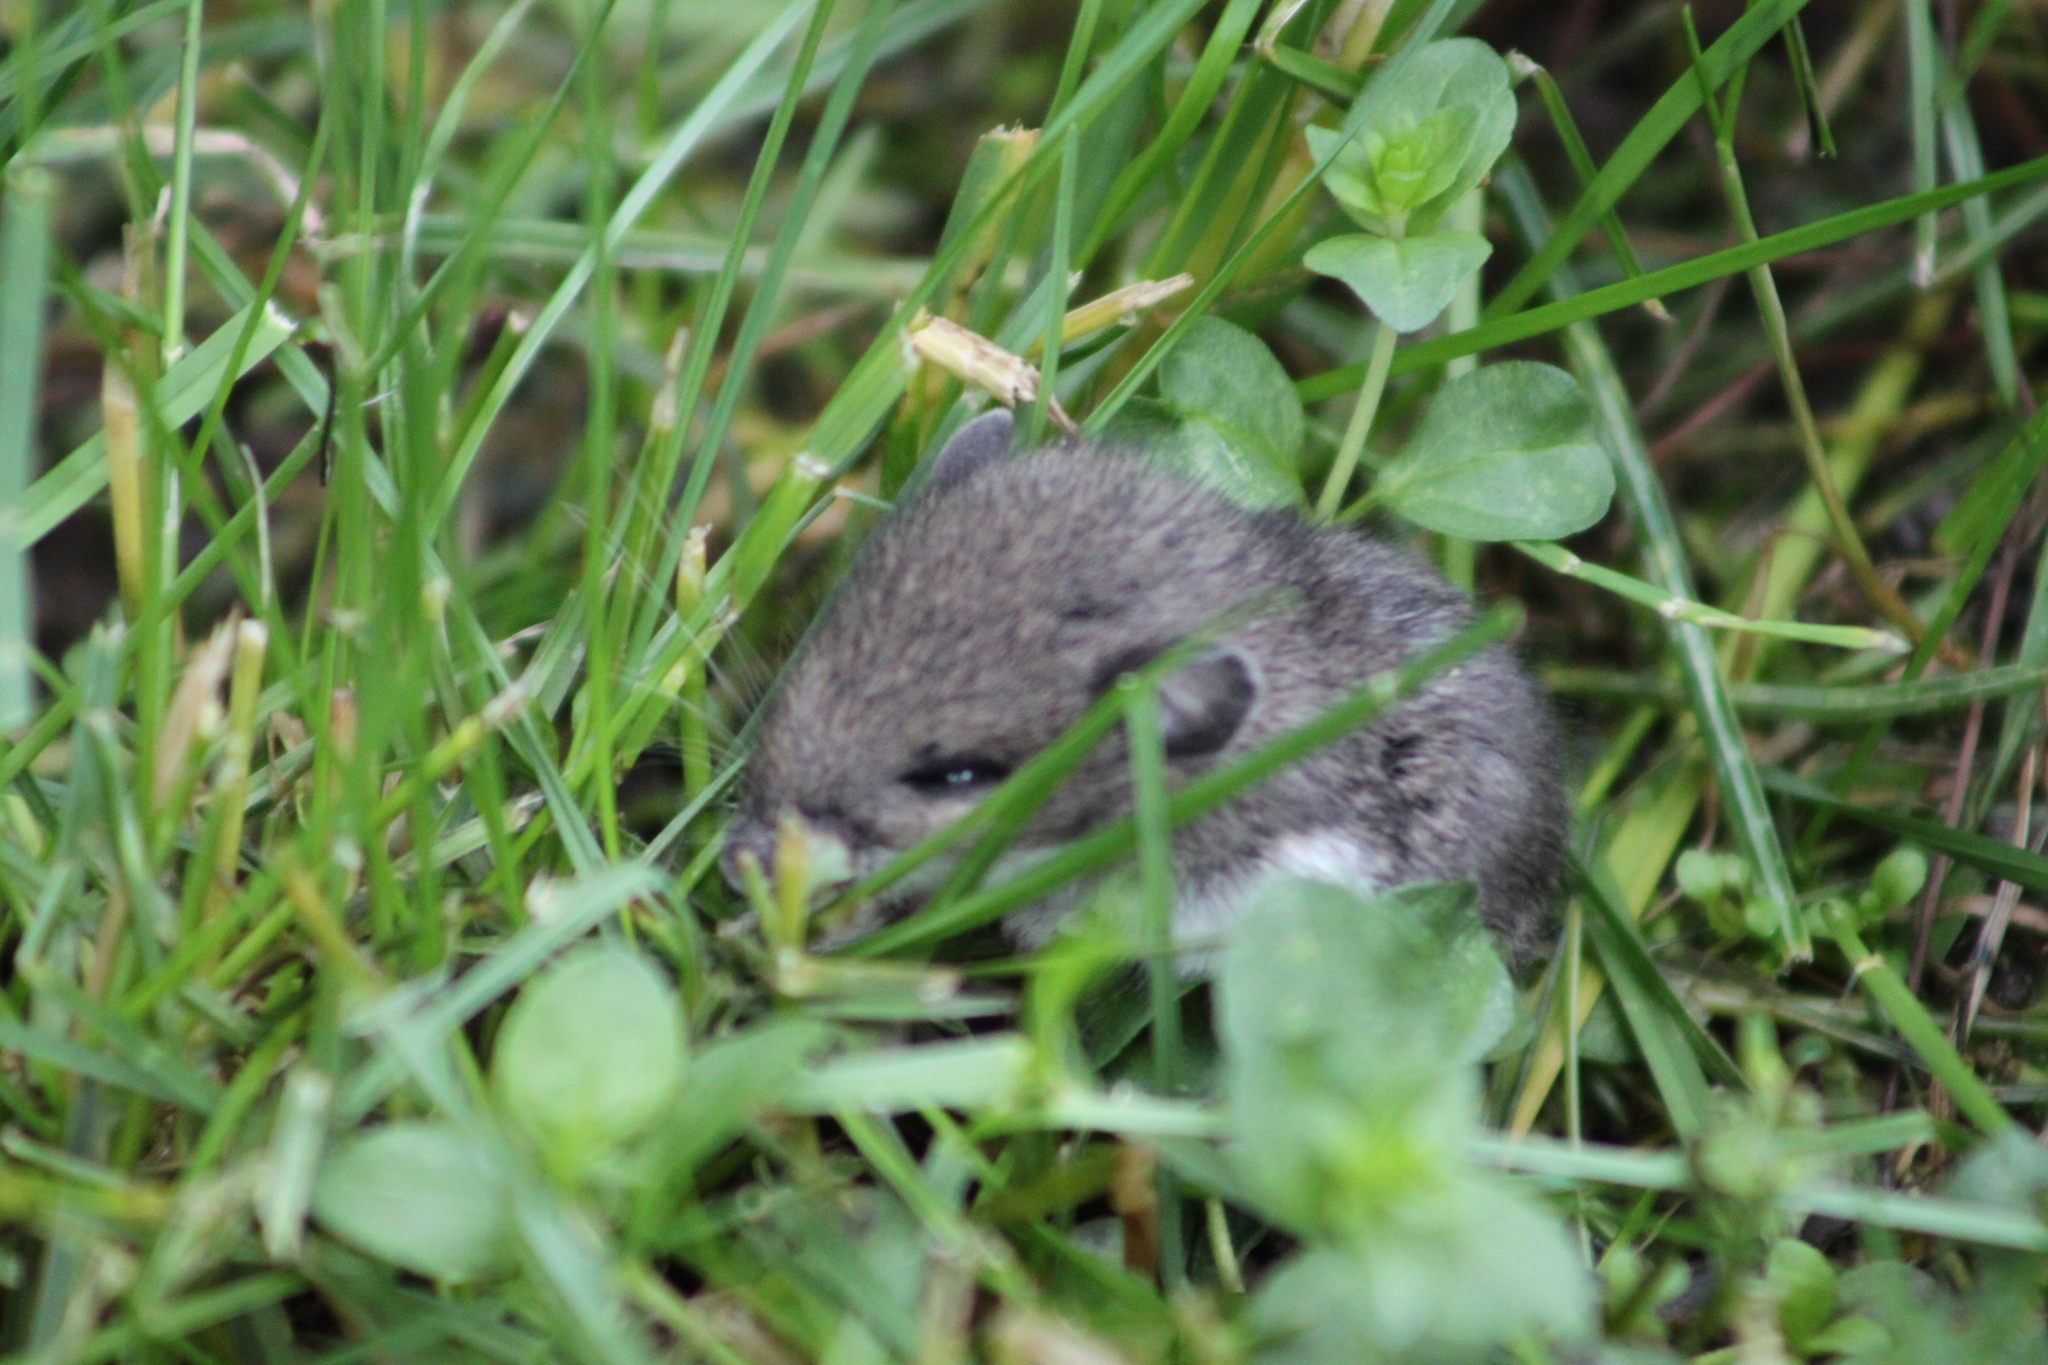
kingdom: Animalia
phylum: Chordata
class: Mammalia
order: Rodentia
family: Cricetidae
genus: Peromyscus
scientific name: Peromyscus
